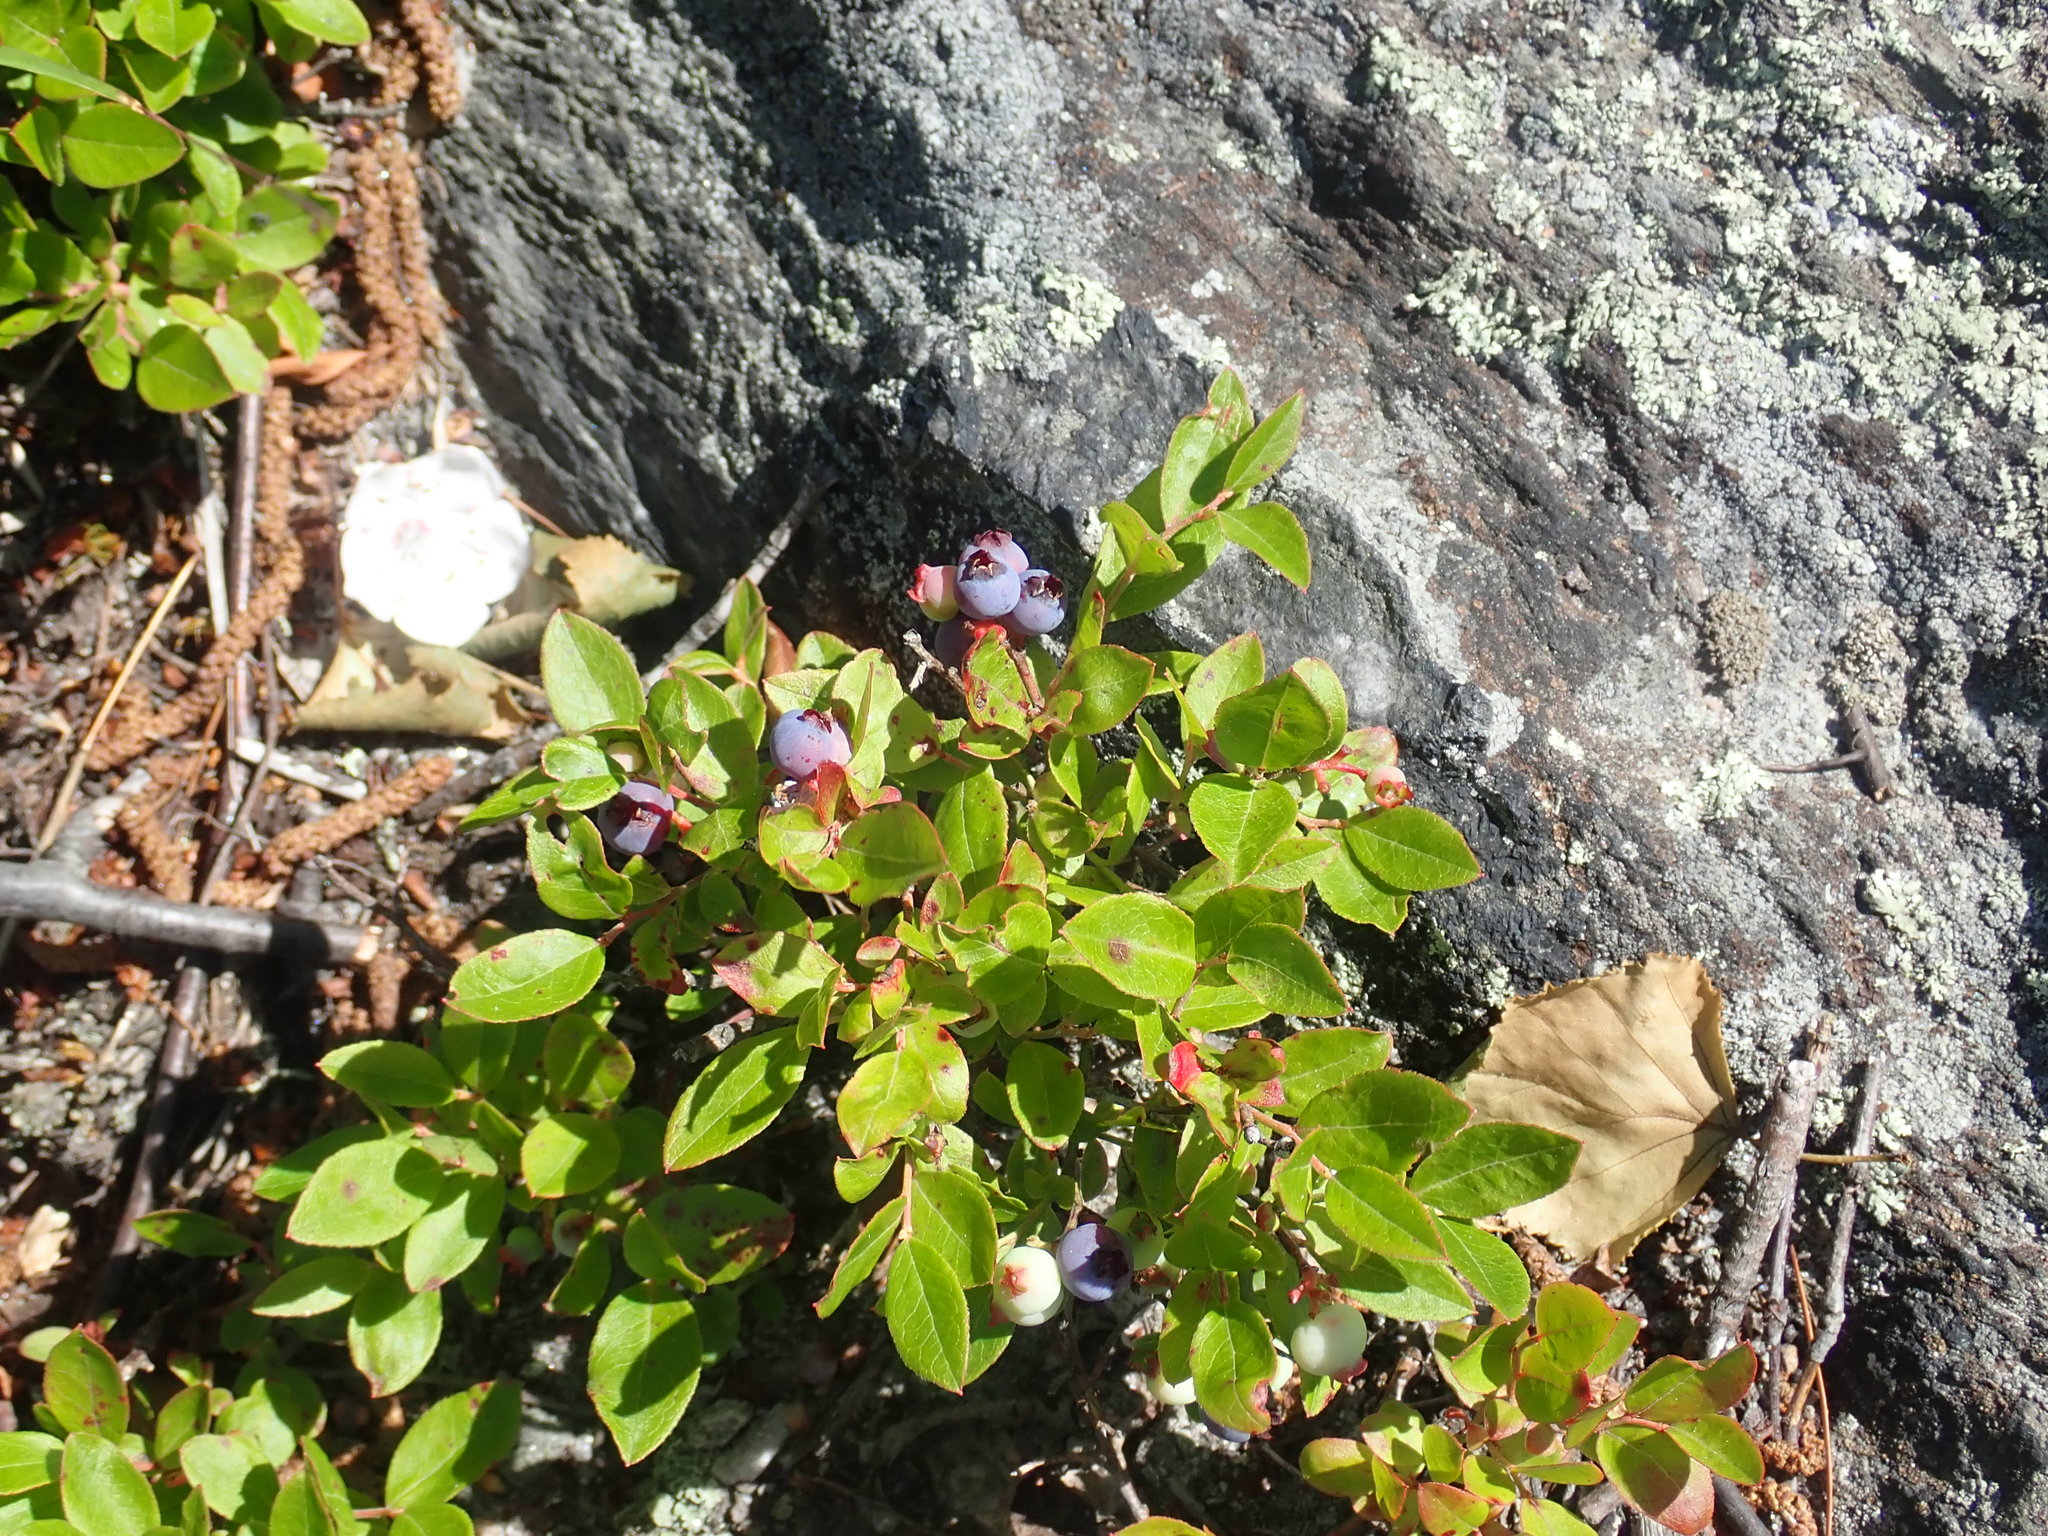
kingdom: Plantae
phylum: Tracheophyta
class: Magnoliopsida
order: Ericales
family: Ericaceae
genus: Vaccinium
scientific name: Vaccinium angustifolium
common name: Early lowbush blueberry
